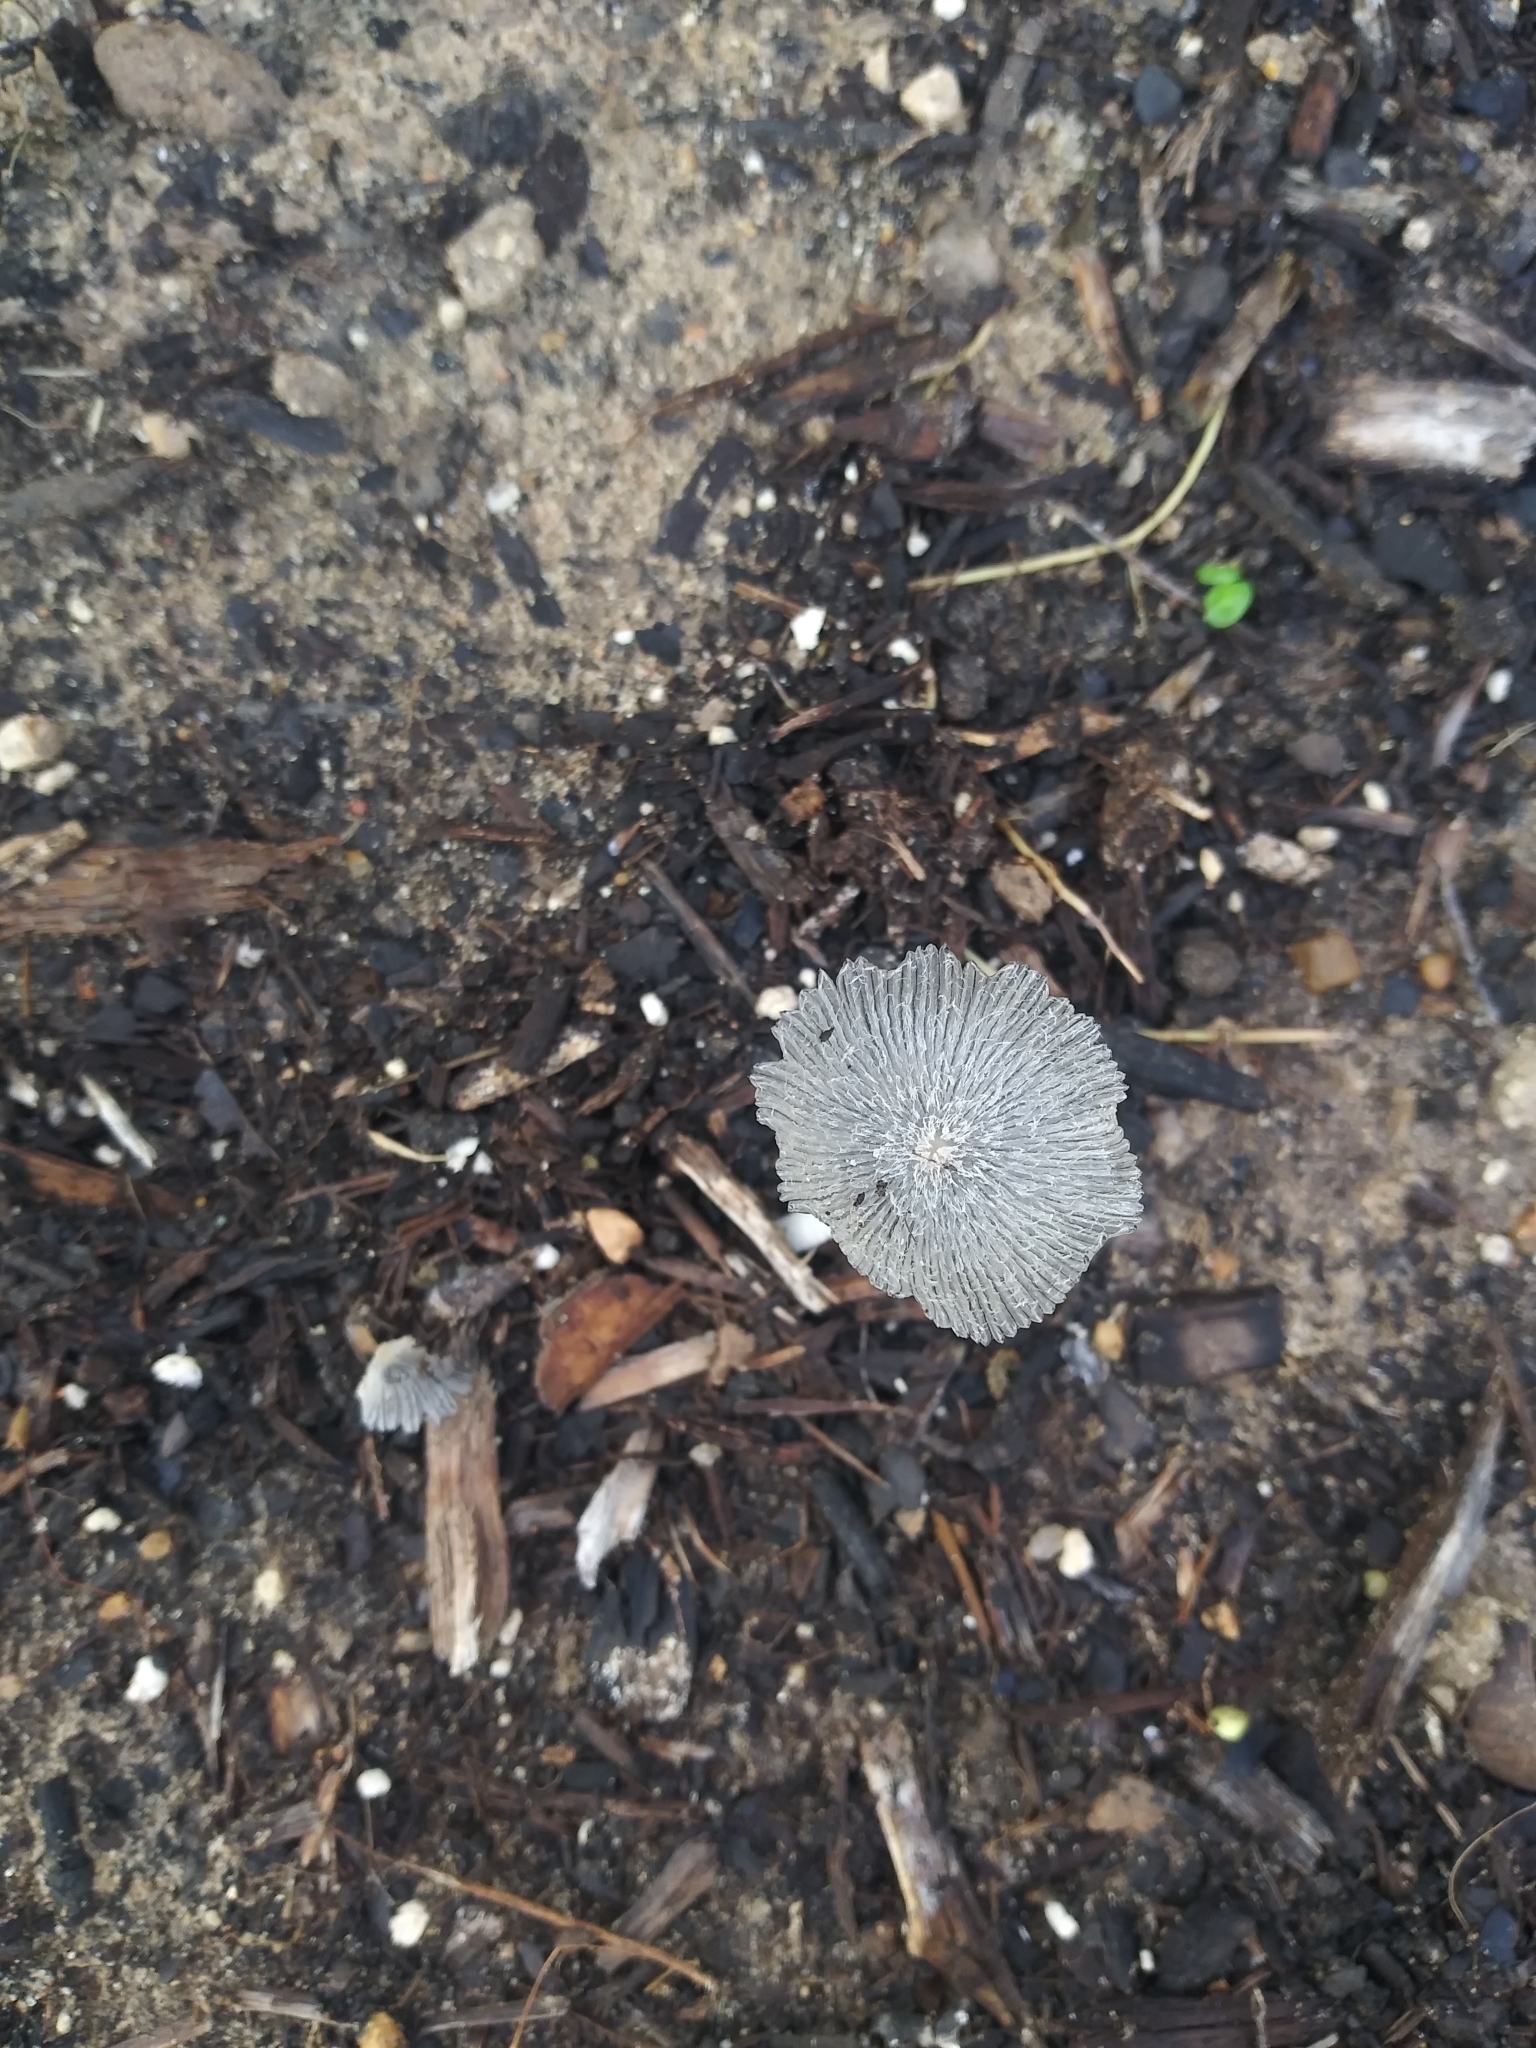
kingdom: Fungi
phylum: Basidiomycota
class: Agaricomycetes
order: Agaricales
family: Psathyrellaceae
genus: Coprinopsis
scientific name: Coprinopsis lagopus
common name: Hare'sfoot inkcap
